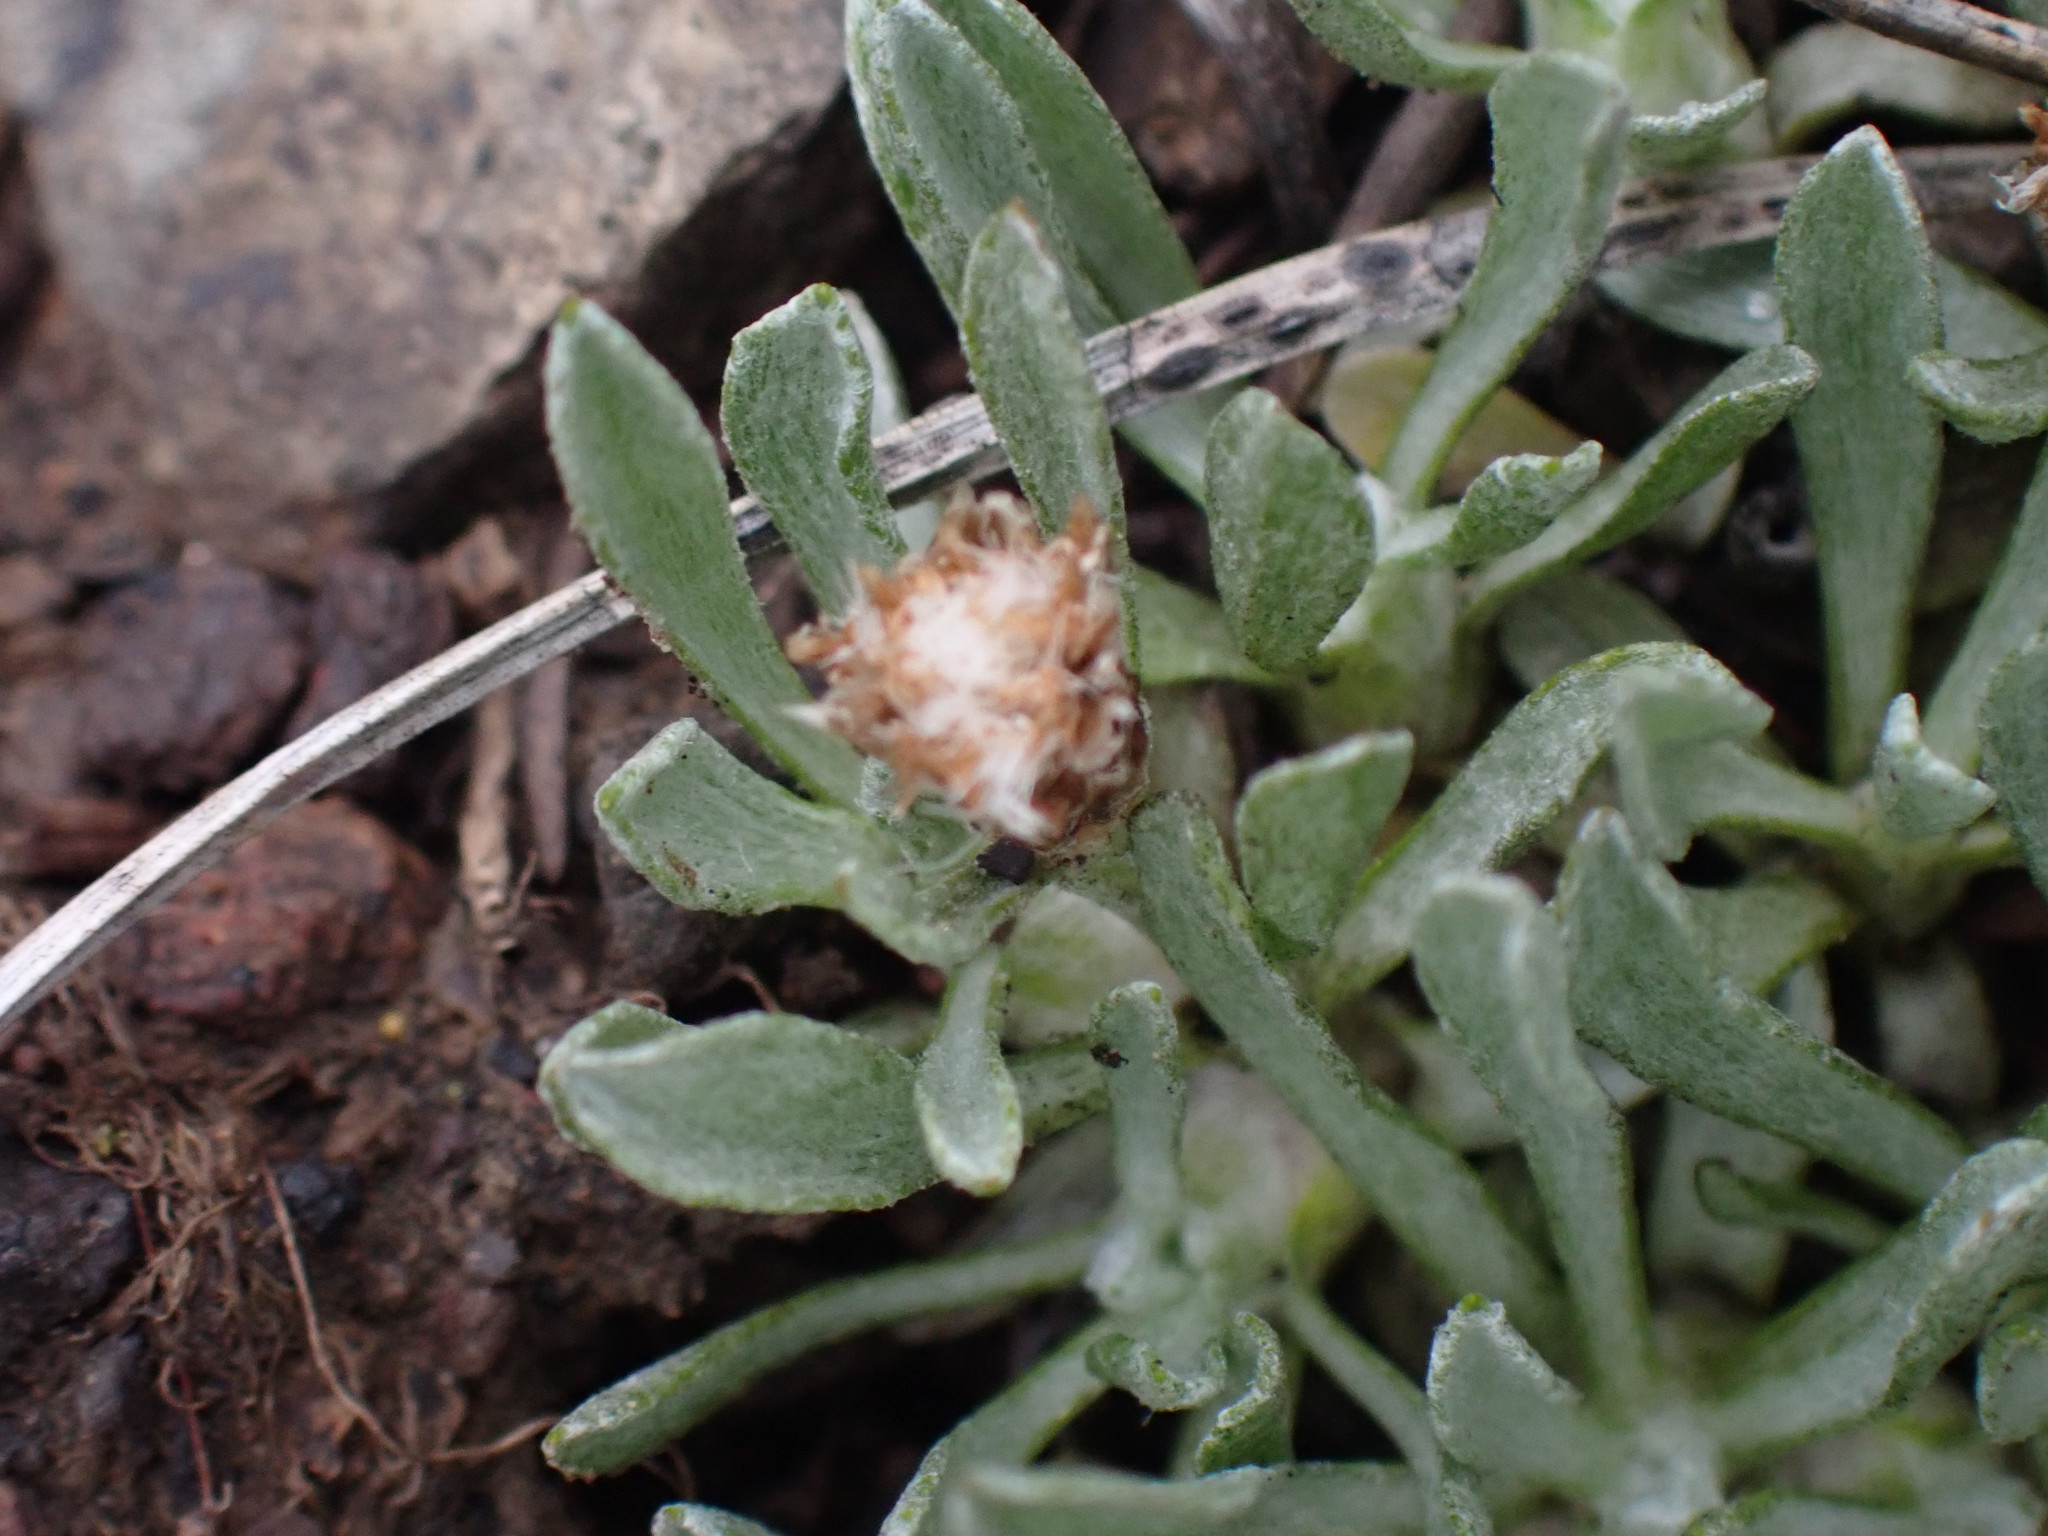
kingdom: Plantae
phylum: Tracheophyta
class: Magnoliopsida
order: Asterales
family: Asteraceae
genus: Antennaria
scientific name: Antennaria dimorpha
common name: Cushion pussytoes
